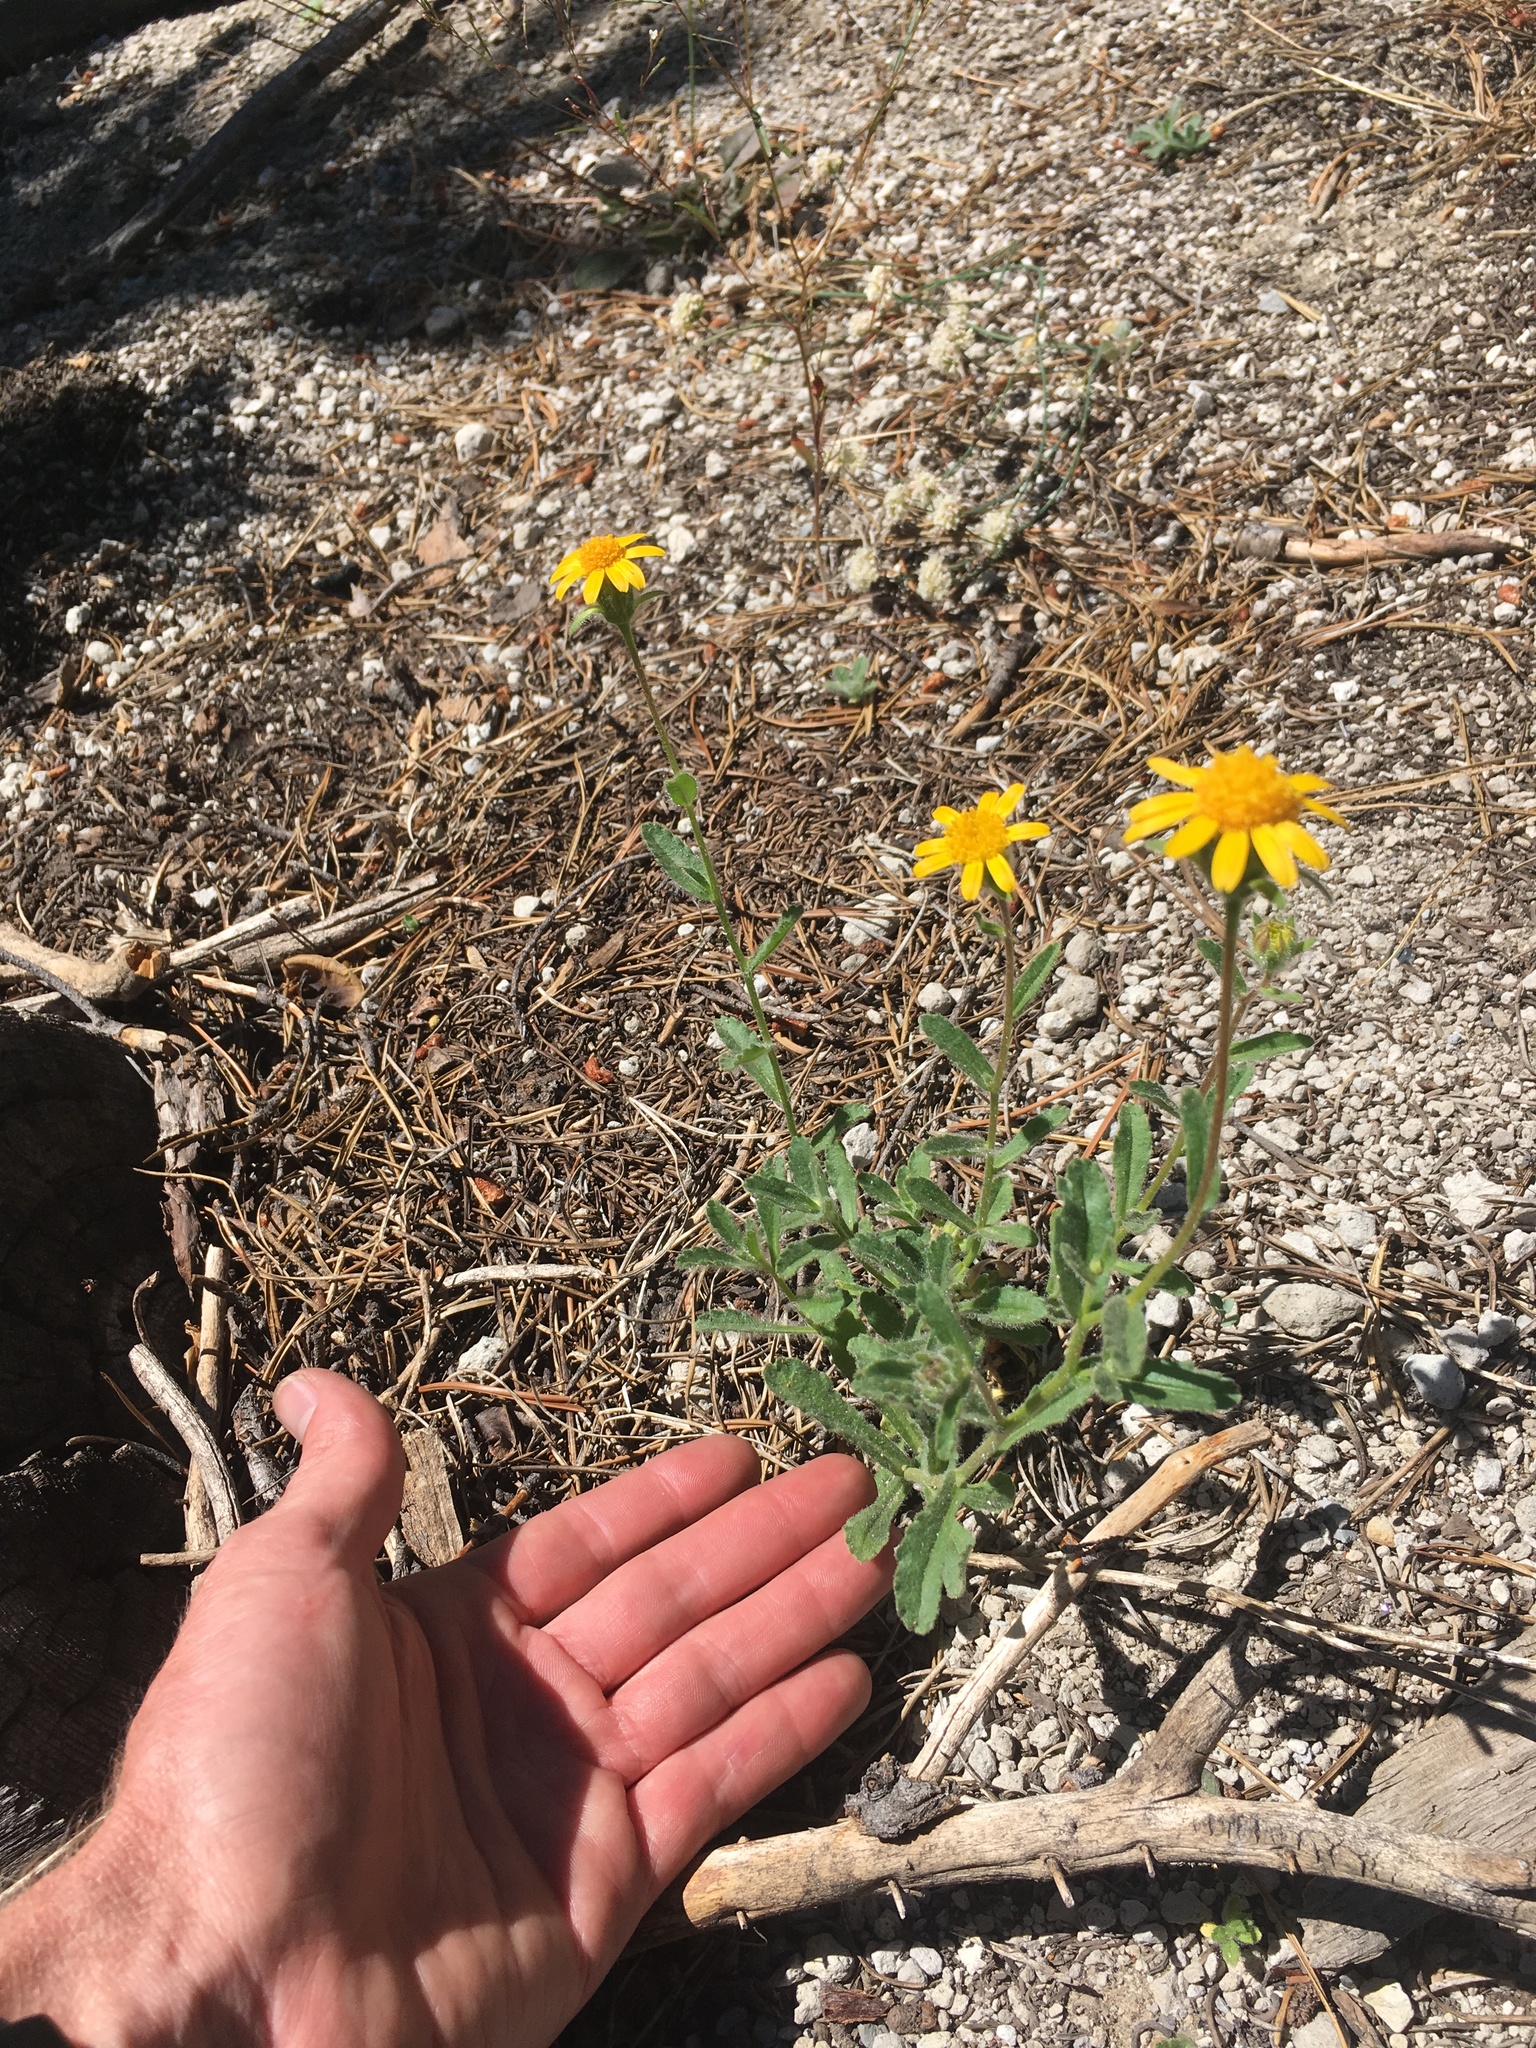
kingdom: Plantae
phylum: Tracheophyta
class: Magnoliopsida
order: Asterales
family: Asteraceae
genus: Hulsea
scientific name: Hulsea brevifolia
